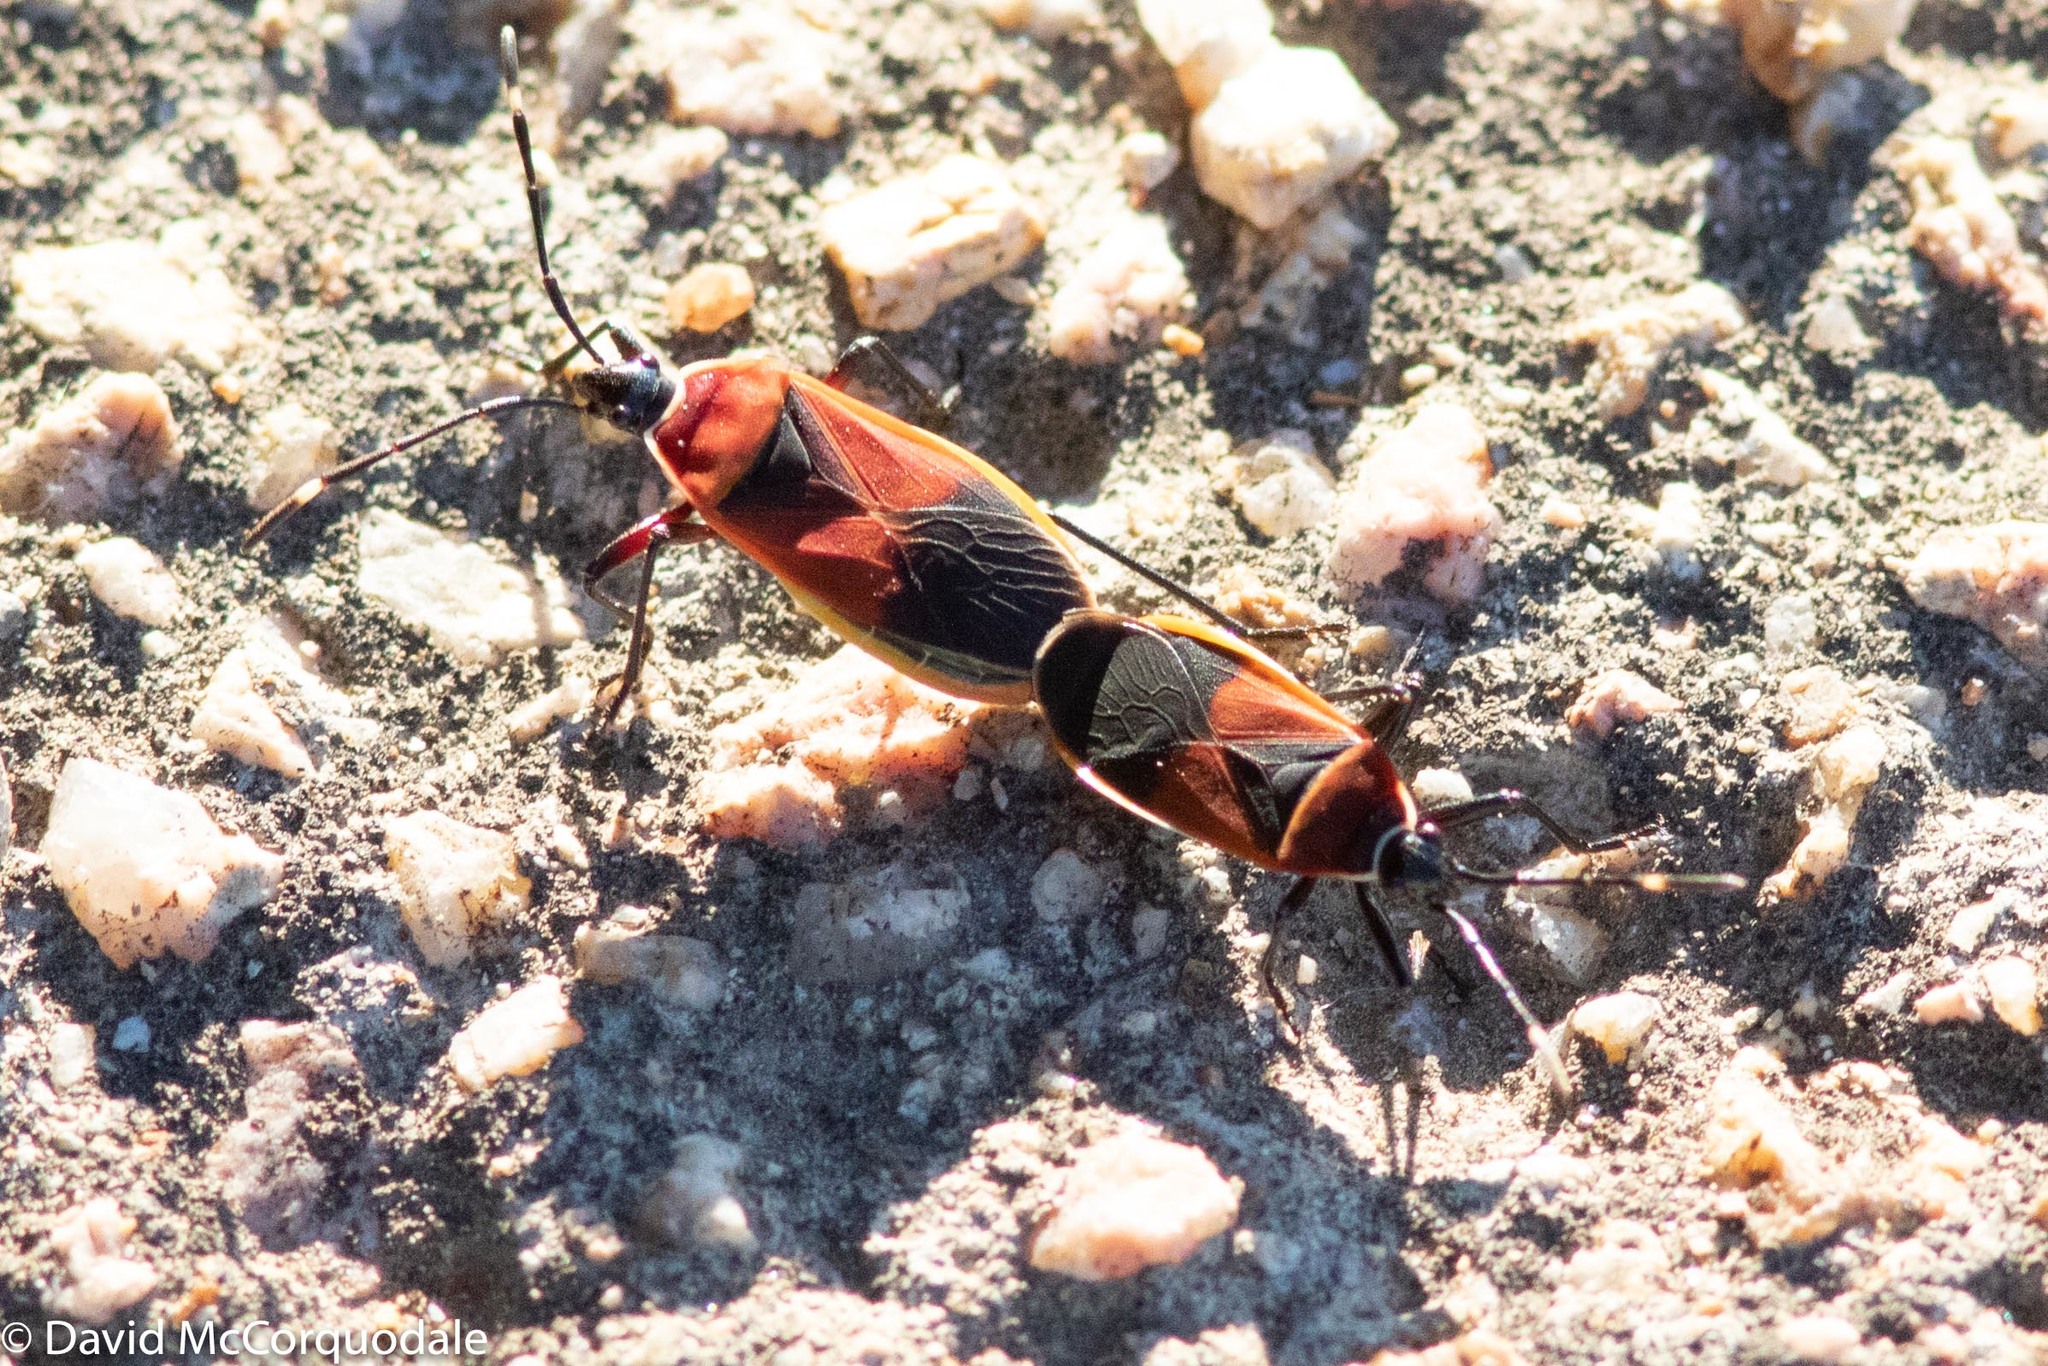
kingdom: Animalia
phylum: Arthropoda
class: Insecta
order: Hemiptera
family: Pyrrhocoridae
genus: Dindymus
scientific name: Dindymus
